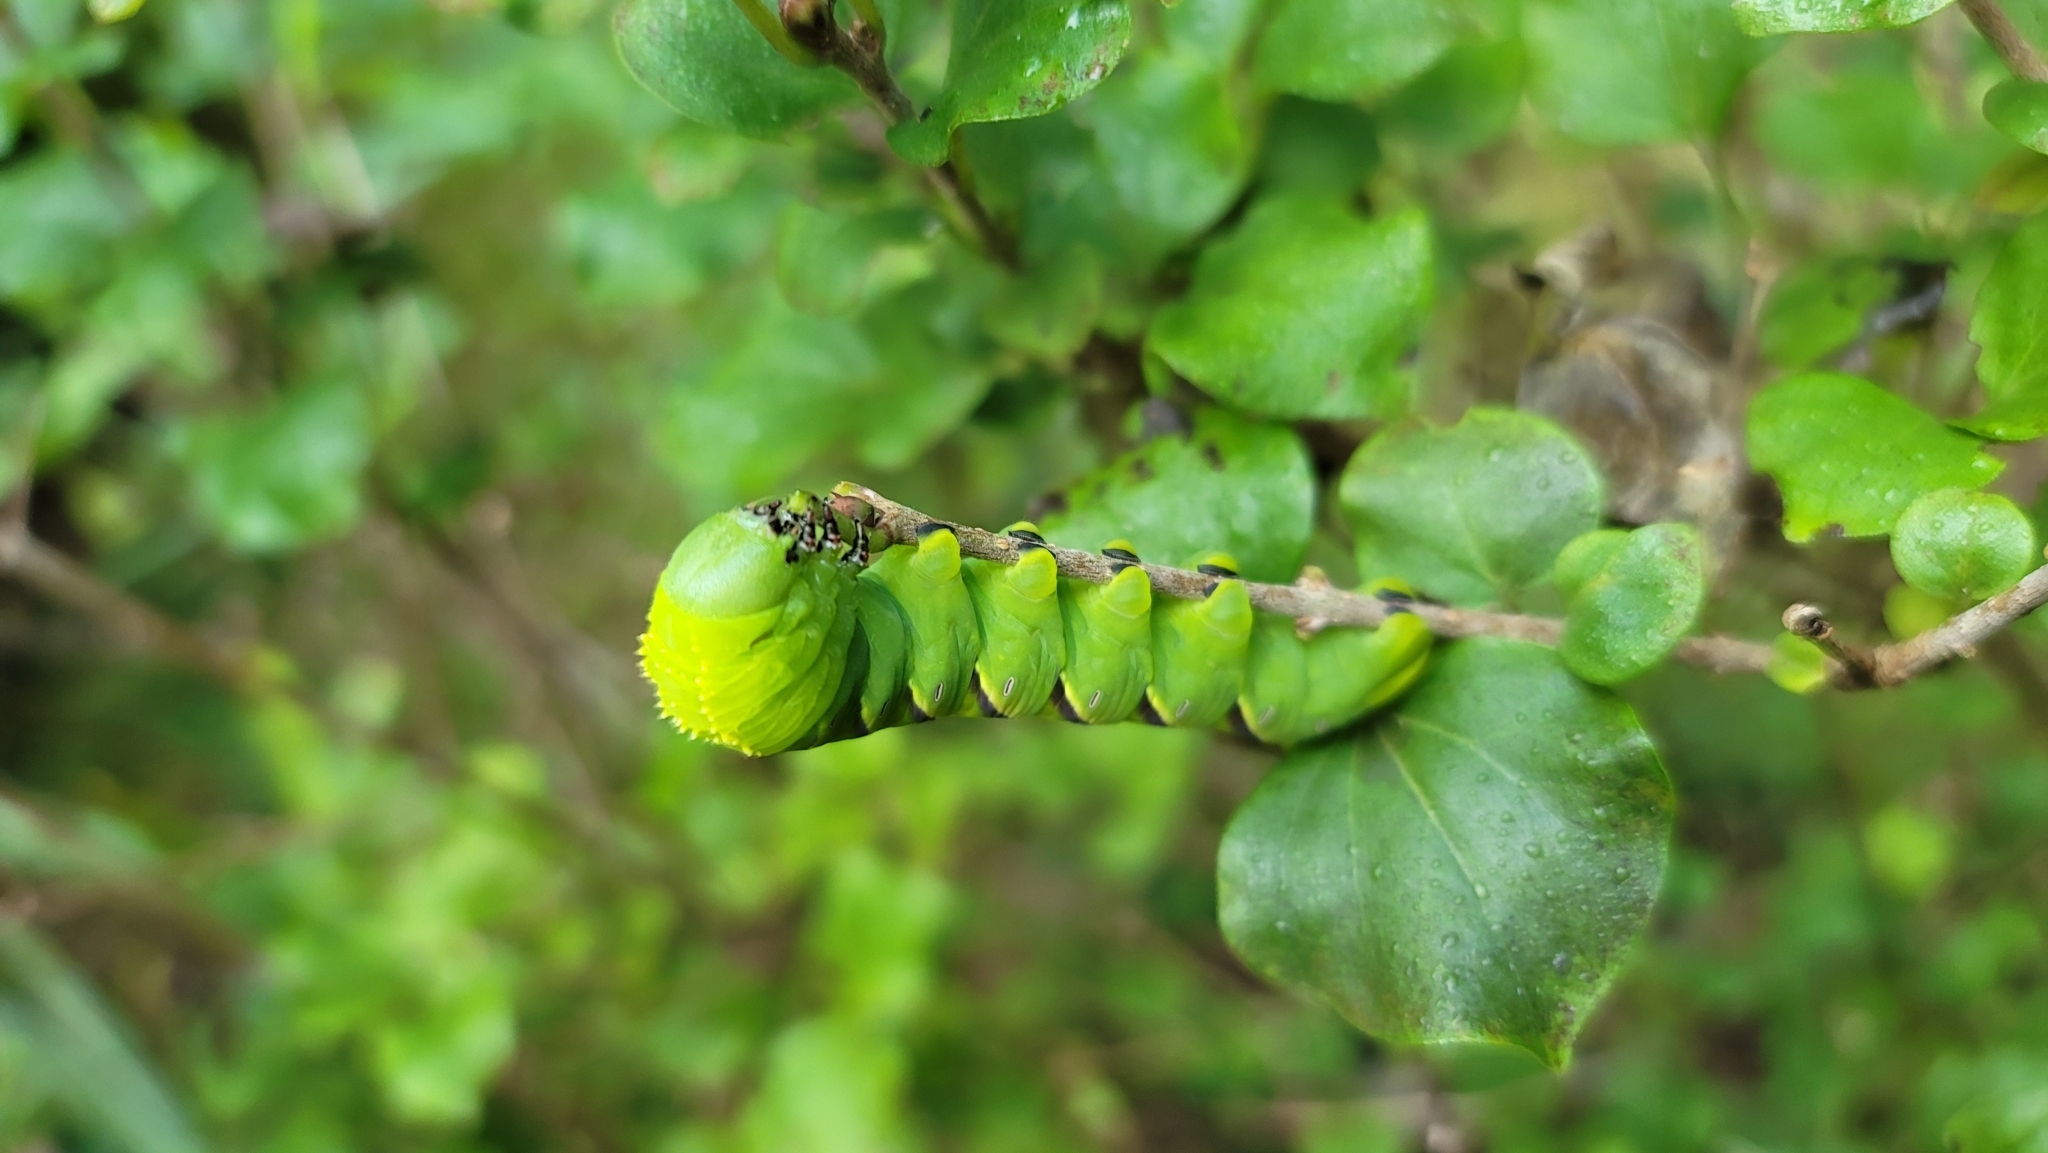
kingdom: Animalia
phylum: Arthropoda
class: Insecta
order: Lepidoptera
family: Sphingidae
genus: Manduca
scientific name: Manduca rustica
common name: Rustic sphinx
